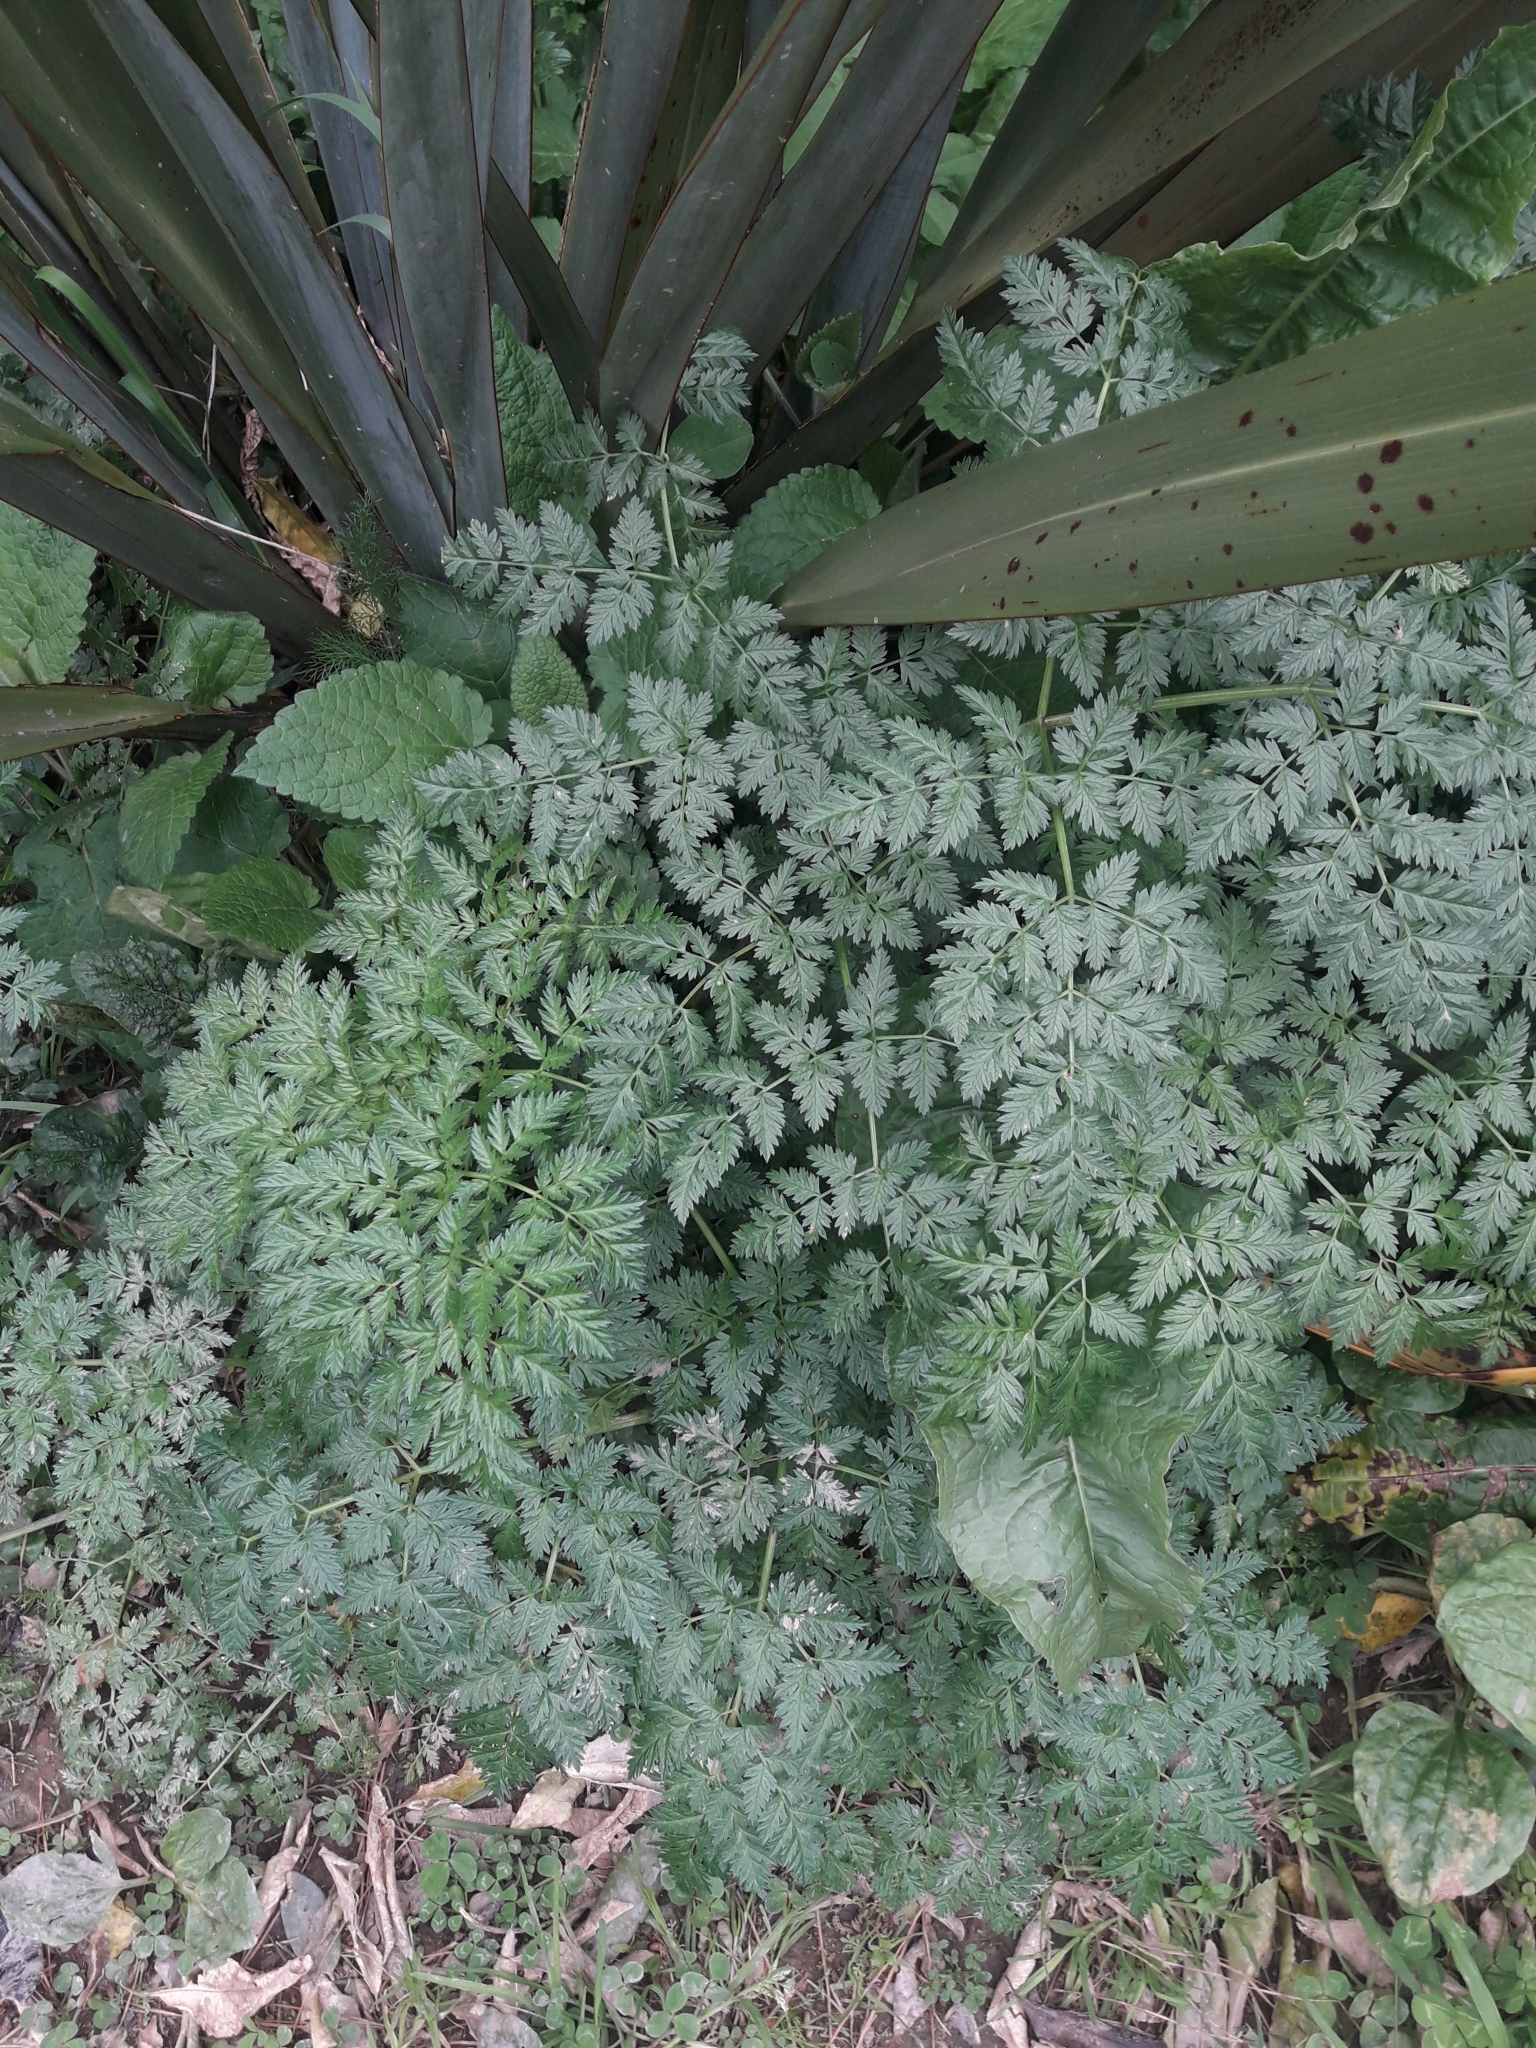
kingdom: Plantae
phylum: Tracheophyta
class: Magnoliopsida
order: Apiales
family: Apiaceae
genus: Conium
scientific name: Conium maculatum
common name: Hemlock
